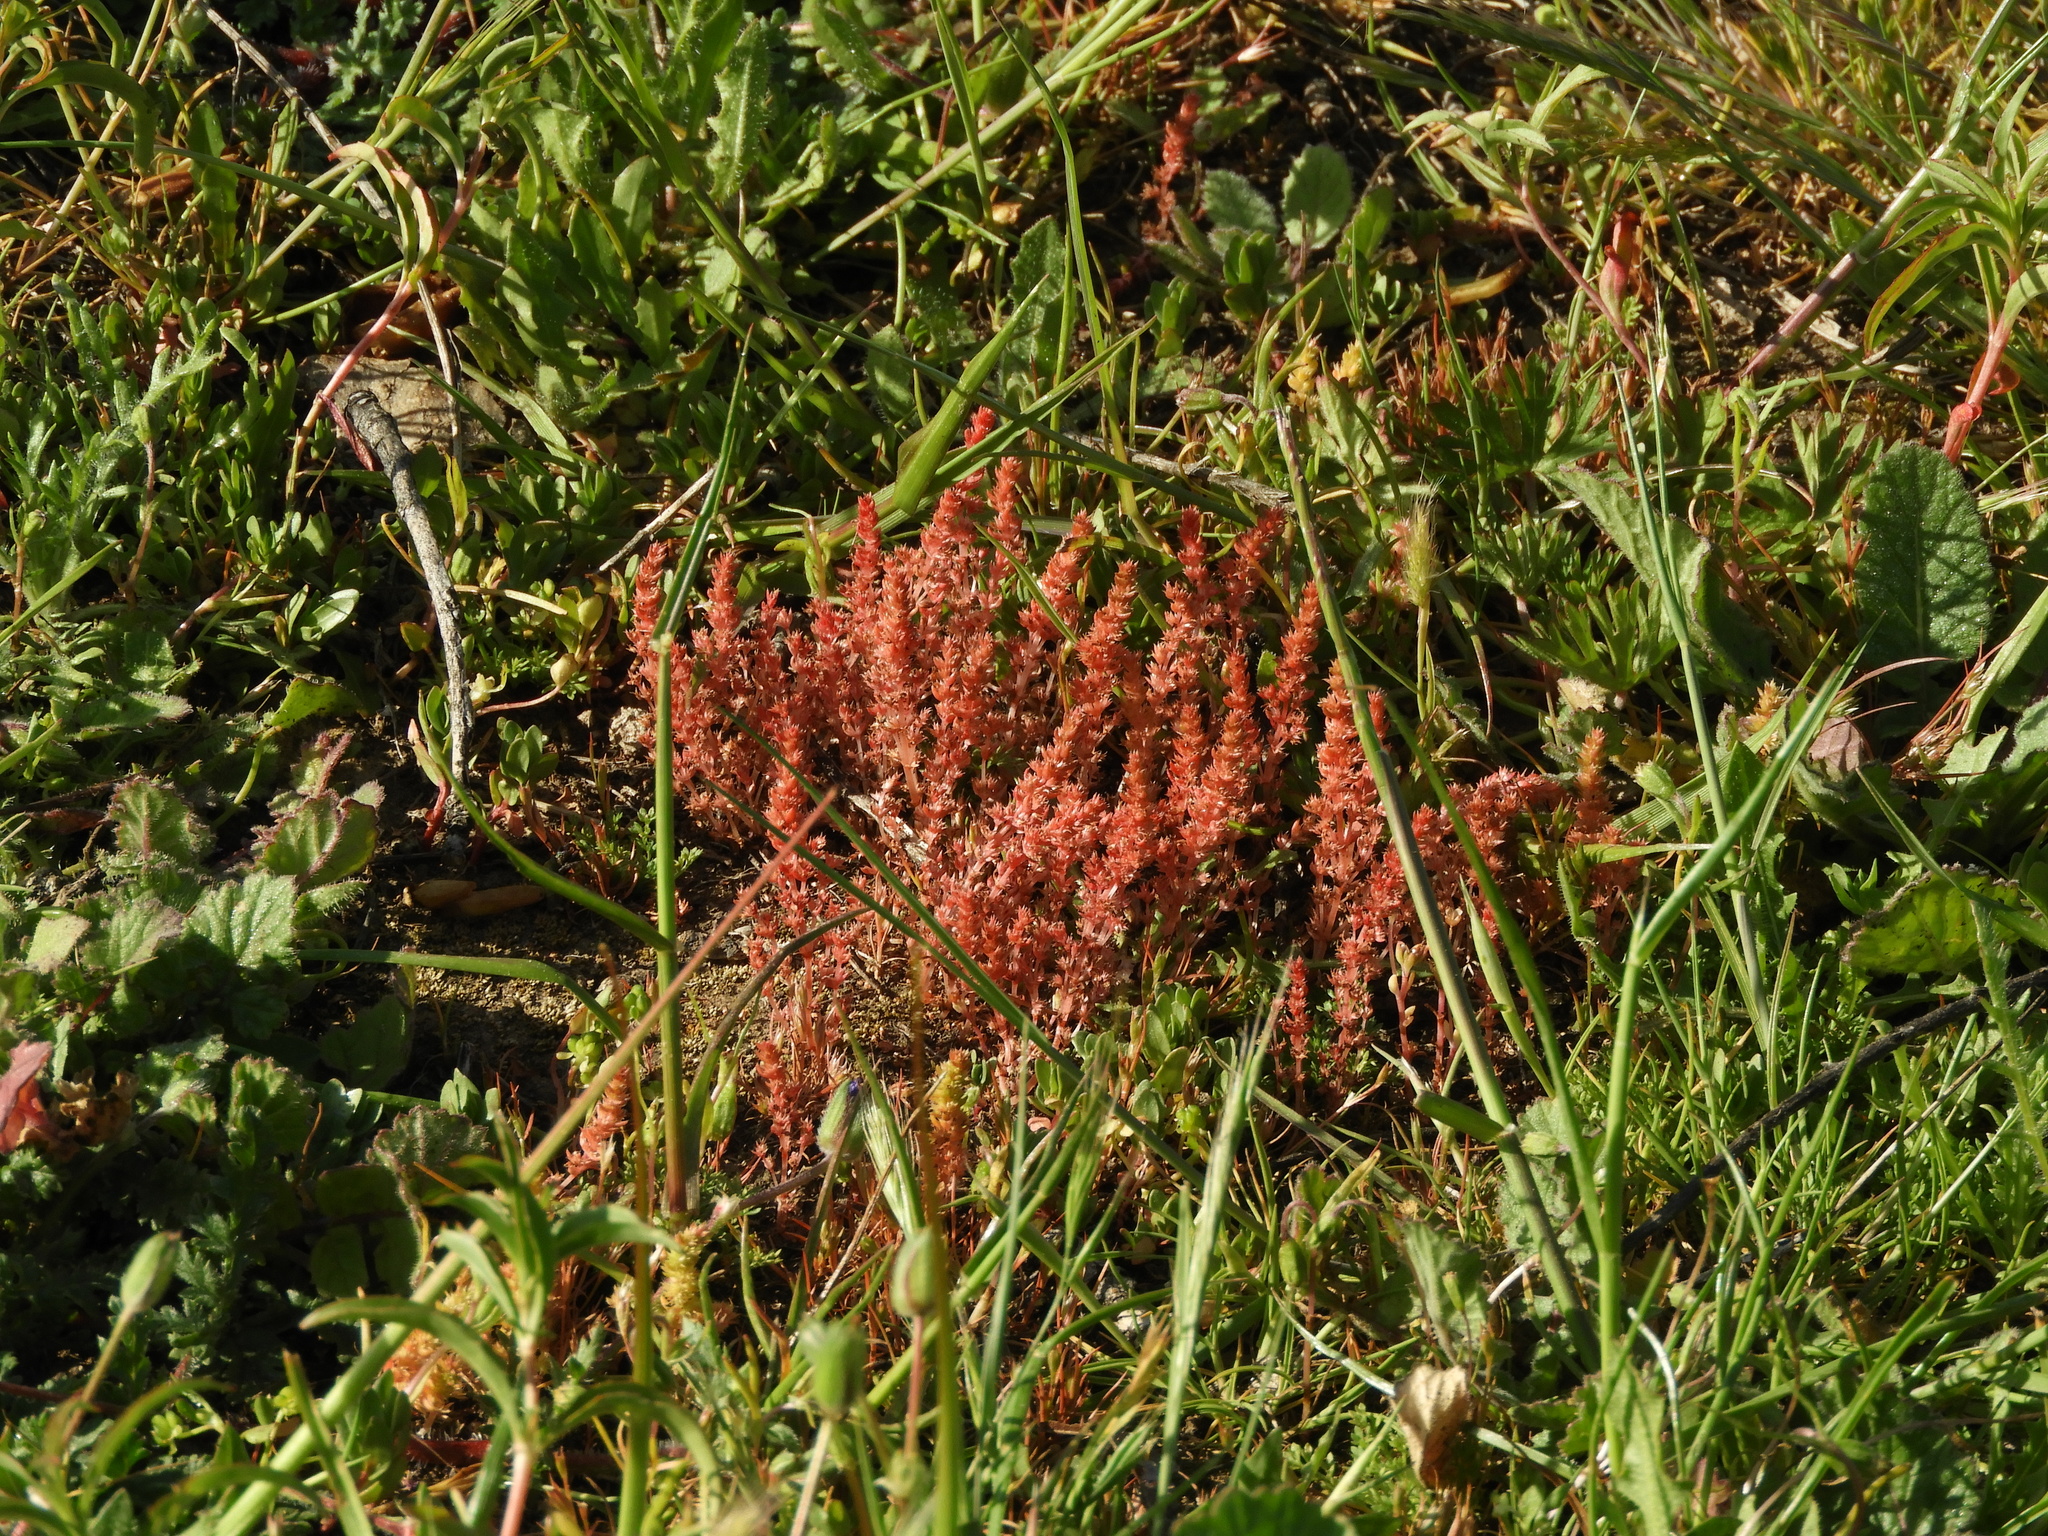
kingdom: Plantae
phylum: Tracheophyta
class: Magnoliopsida
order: Saxifragales
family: Crassulaceae
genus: Crassula
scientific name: Crassula tillaea
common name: Mossy stonecrop
